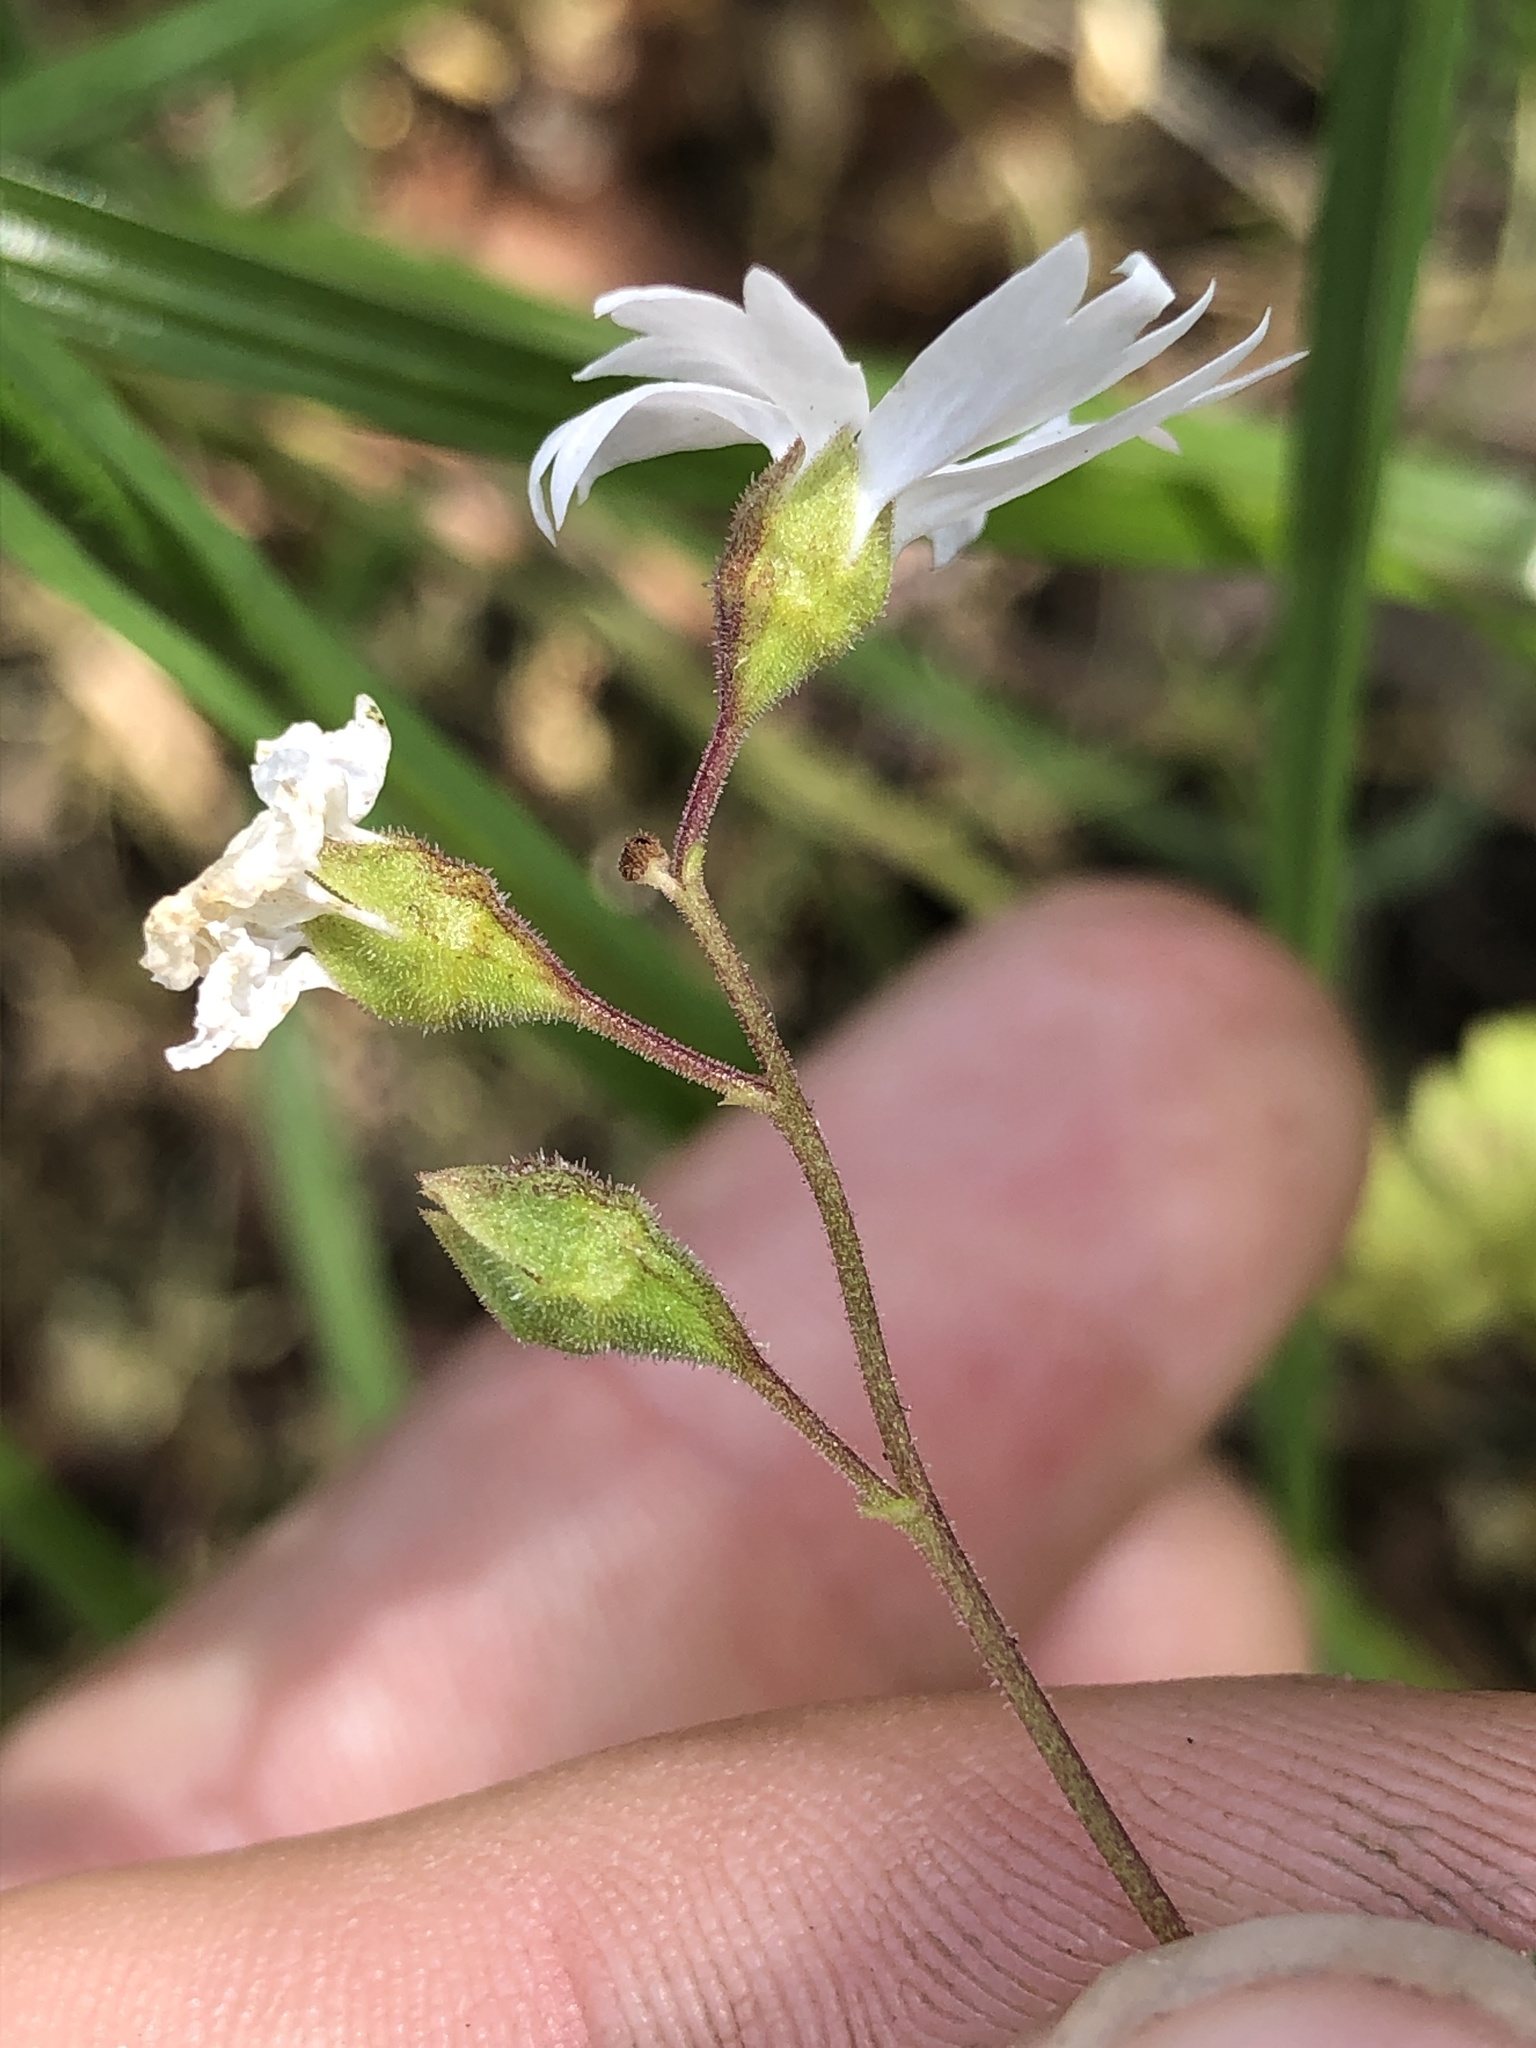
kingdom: Plantae
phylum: Tracheophyta
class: Magnoliopsida
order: Saxifragales
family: Saxifragaceae
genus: Lithophragma
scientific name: Lithophragma affine
